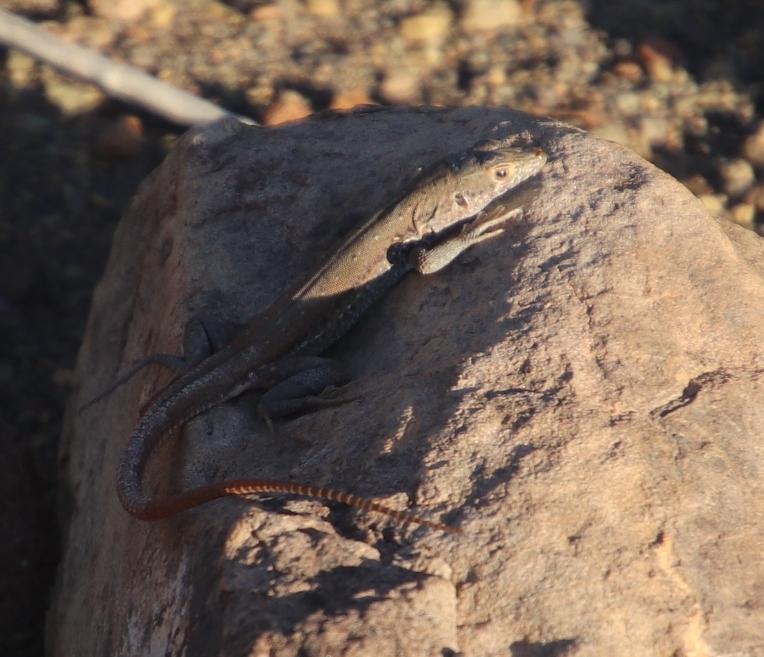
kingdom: Animalia
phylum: Chordata
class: Squamata
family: Lacertidae
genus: Pedioplanis
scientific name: Pedioplanis lineoocellata
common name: Spotted sand lizard
